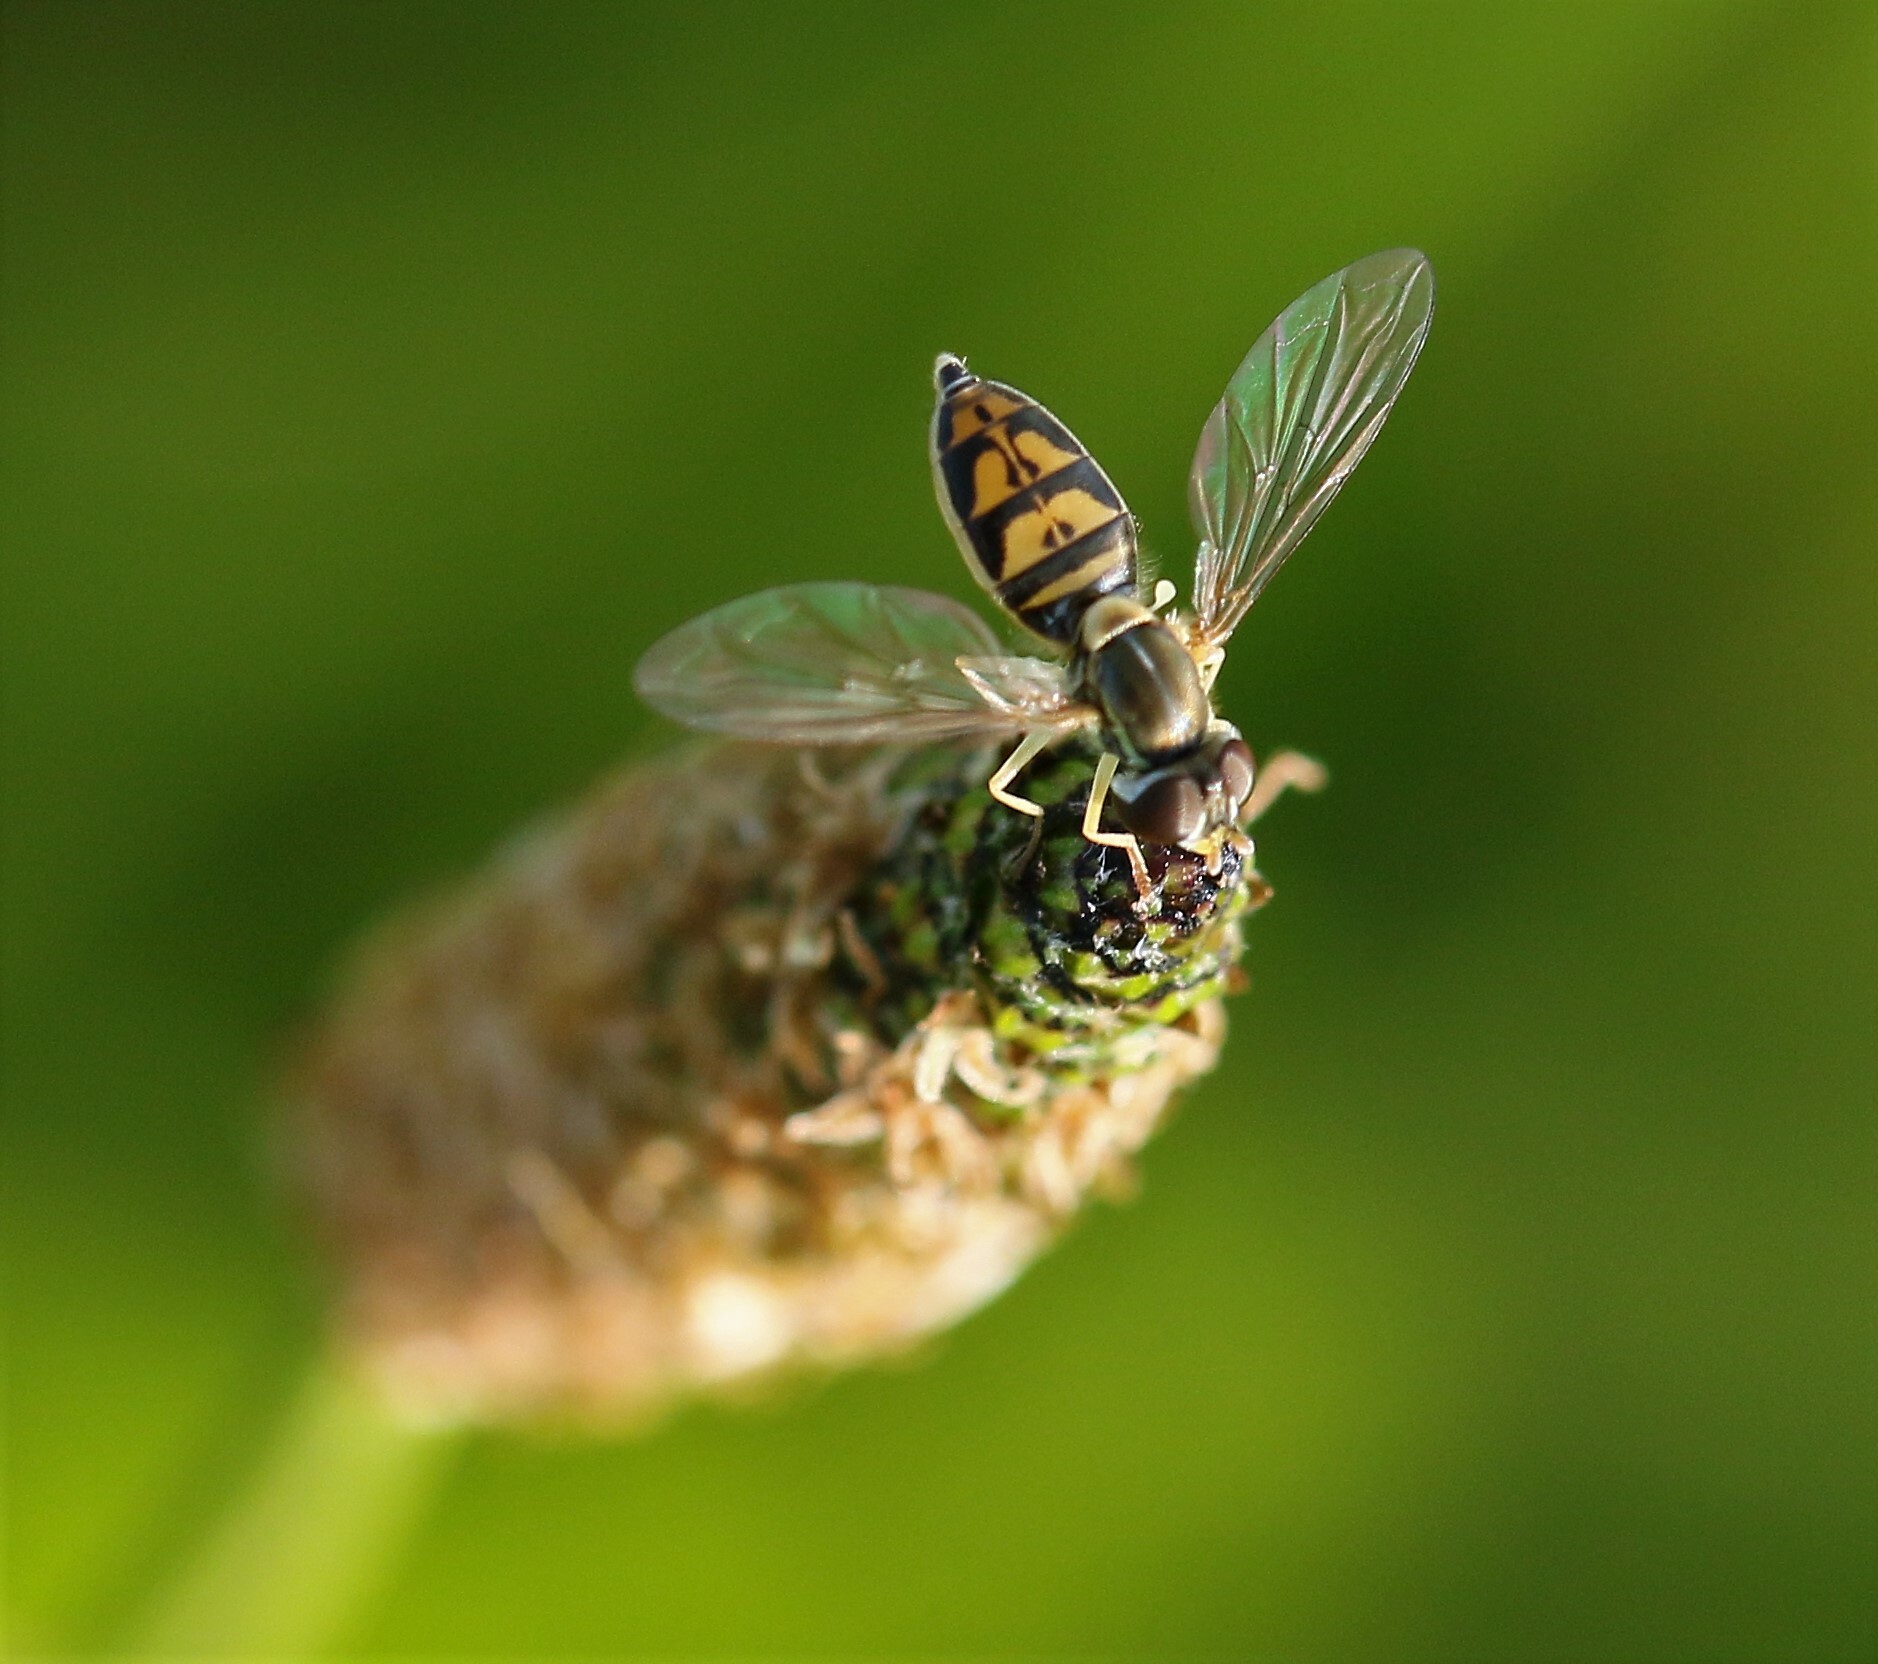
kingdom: Animalia
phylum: Arthropoda
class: Insecta
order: Diptera
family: Syrphidae
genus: Toxomerus
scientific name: Toxomerus marginatus
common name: Syrphid fly
